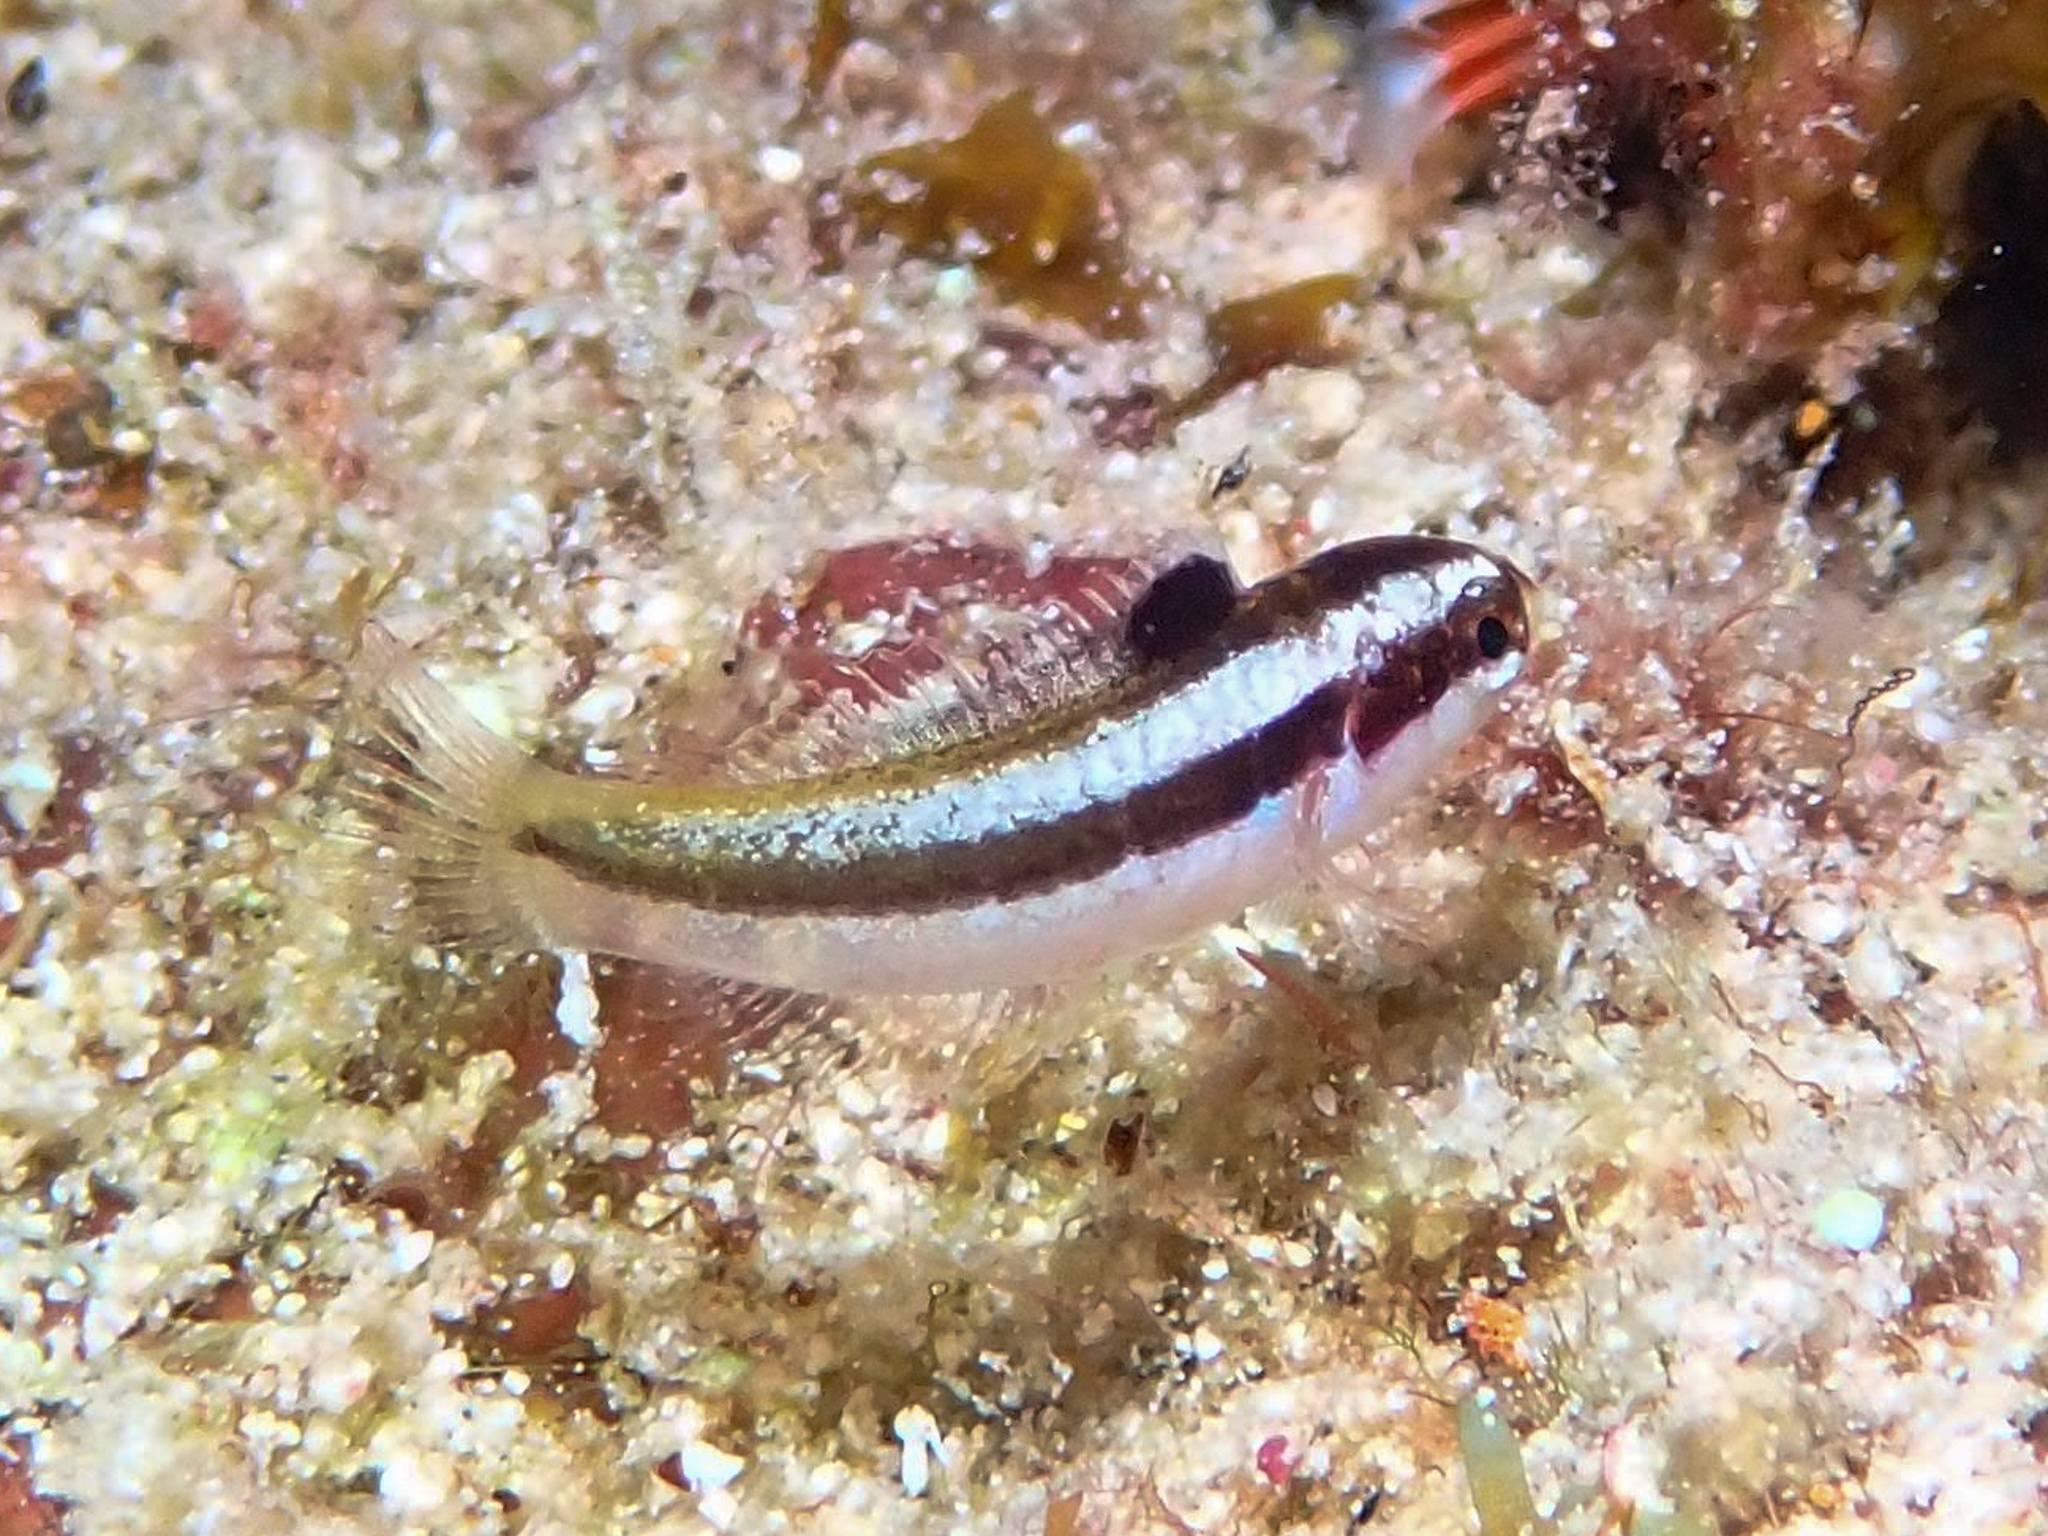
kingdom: Animalia
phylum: Chordata
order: Perciformes
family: Labridae
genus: Thalassoma
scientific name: Thalassoma bifasciatum
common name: Bluehead wrasse
